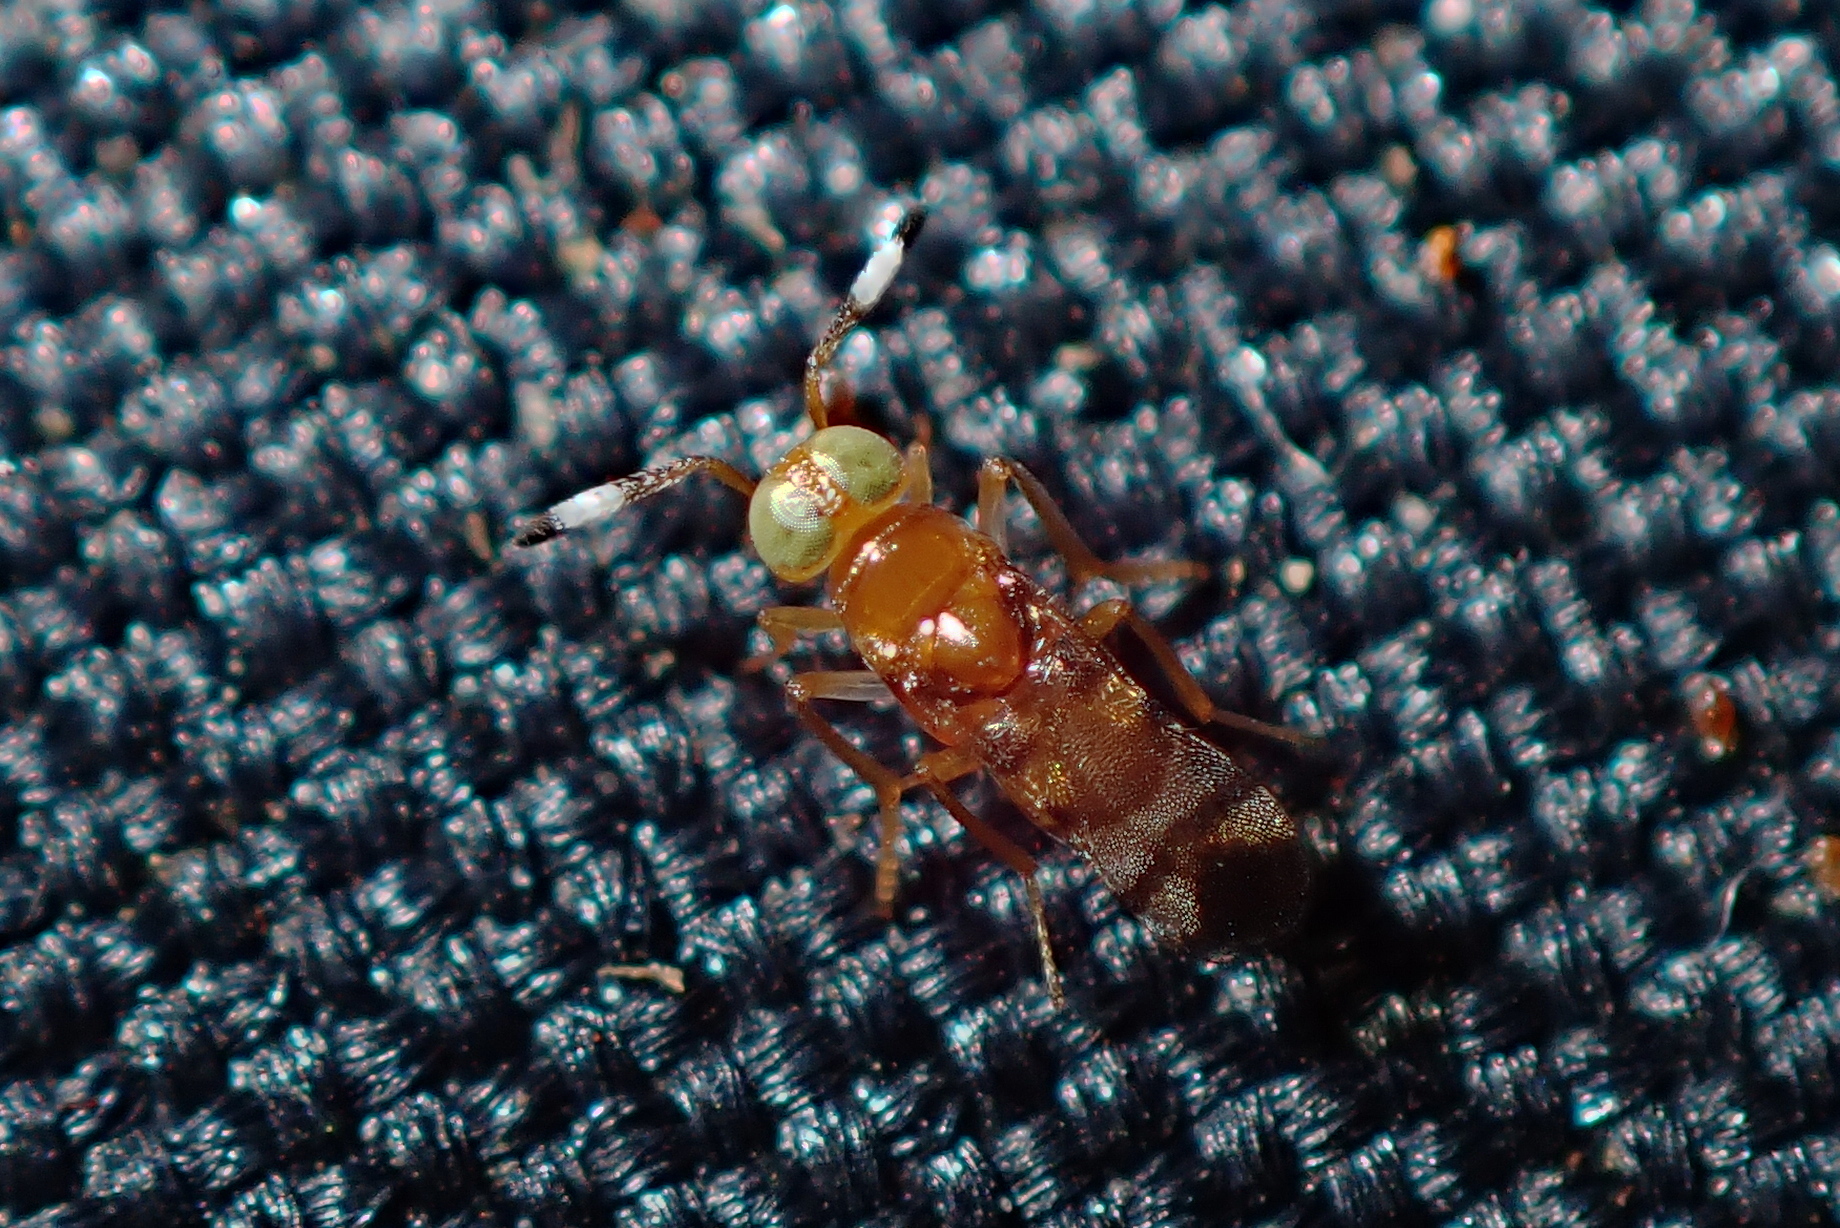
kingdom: Animalia
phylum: Arthropoda
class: Insecta
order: Hymenoptera
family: Encyrtidae
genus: Microterys
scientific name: Microterys nietneri
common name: Parasitoid wasp
